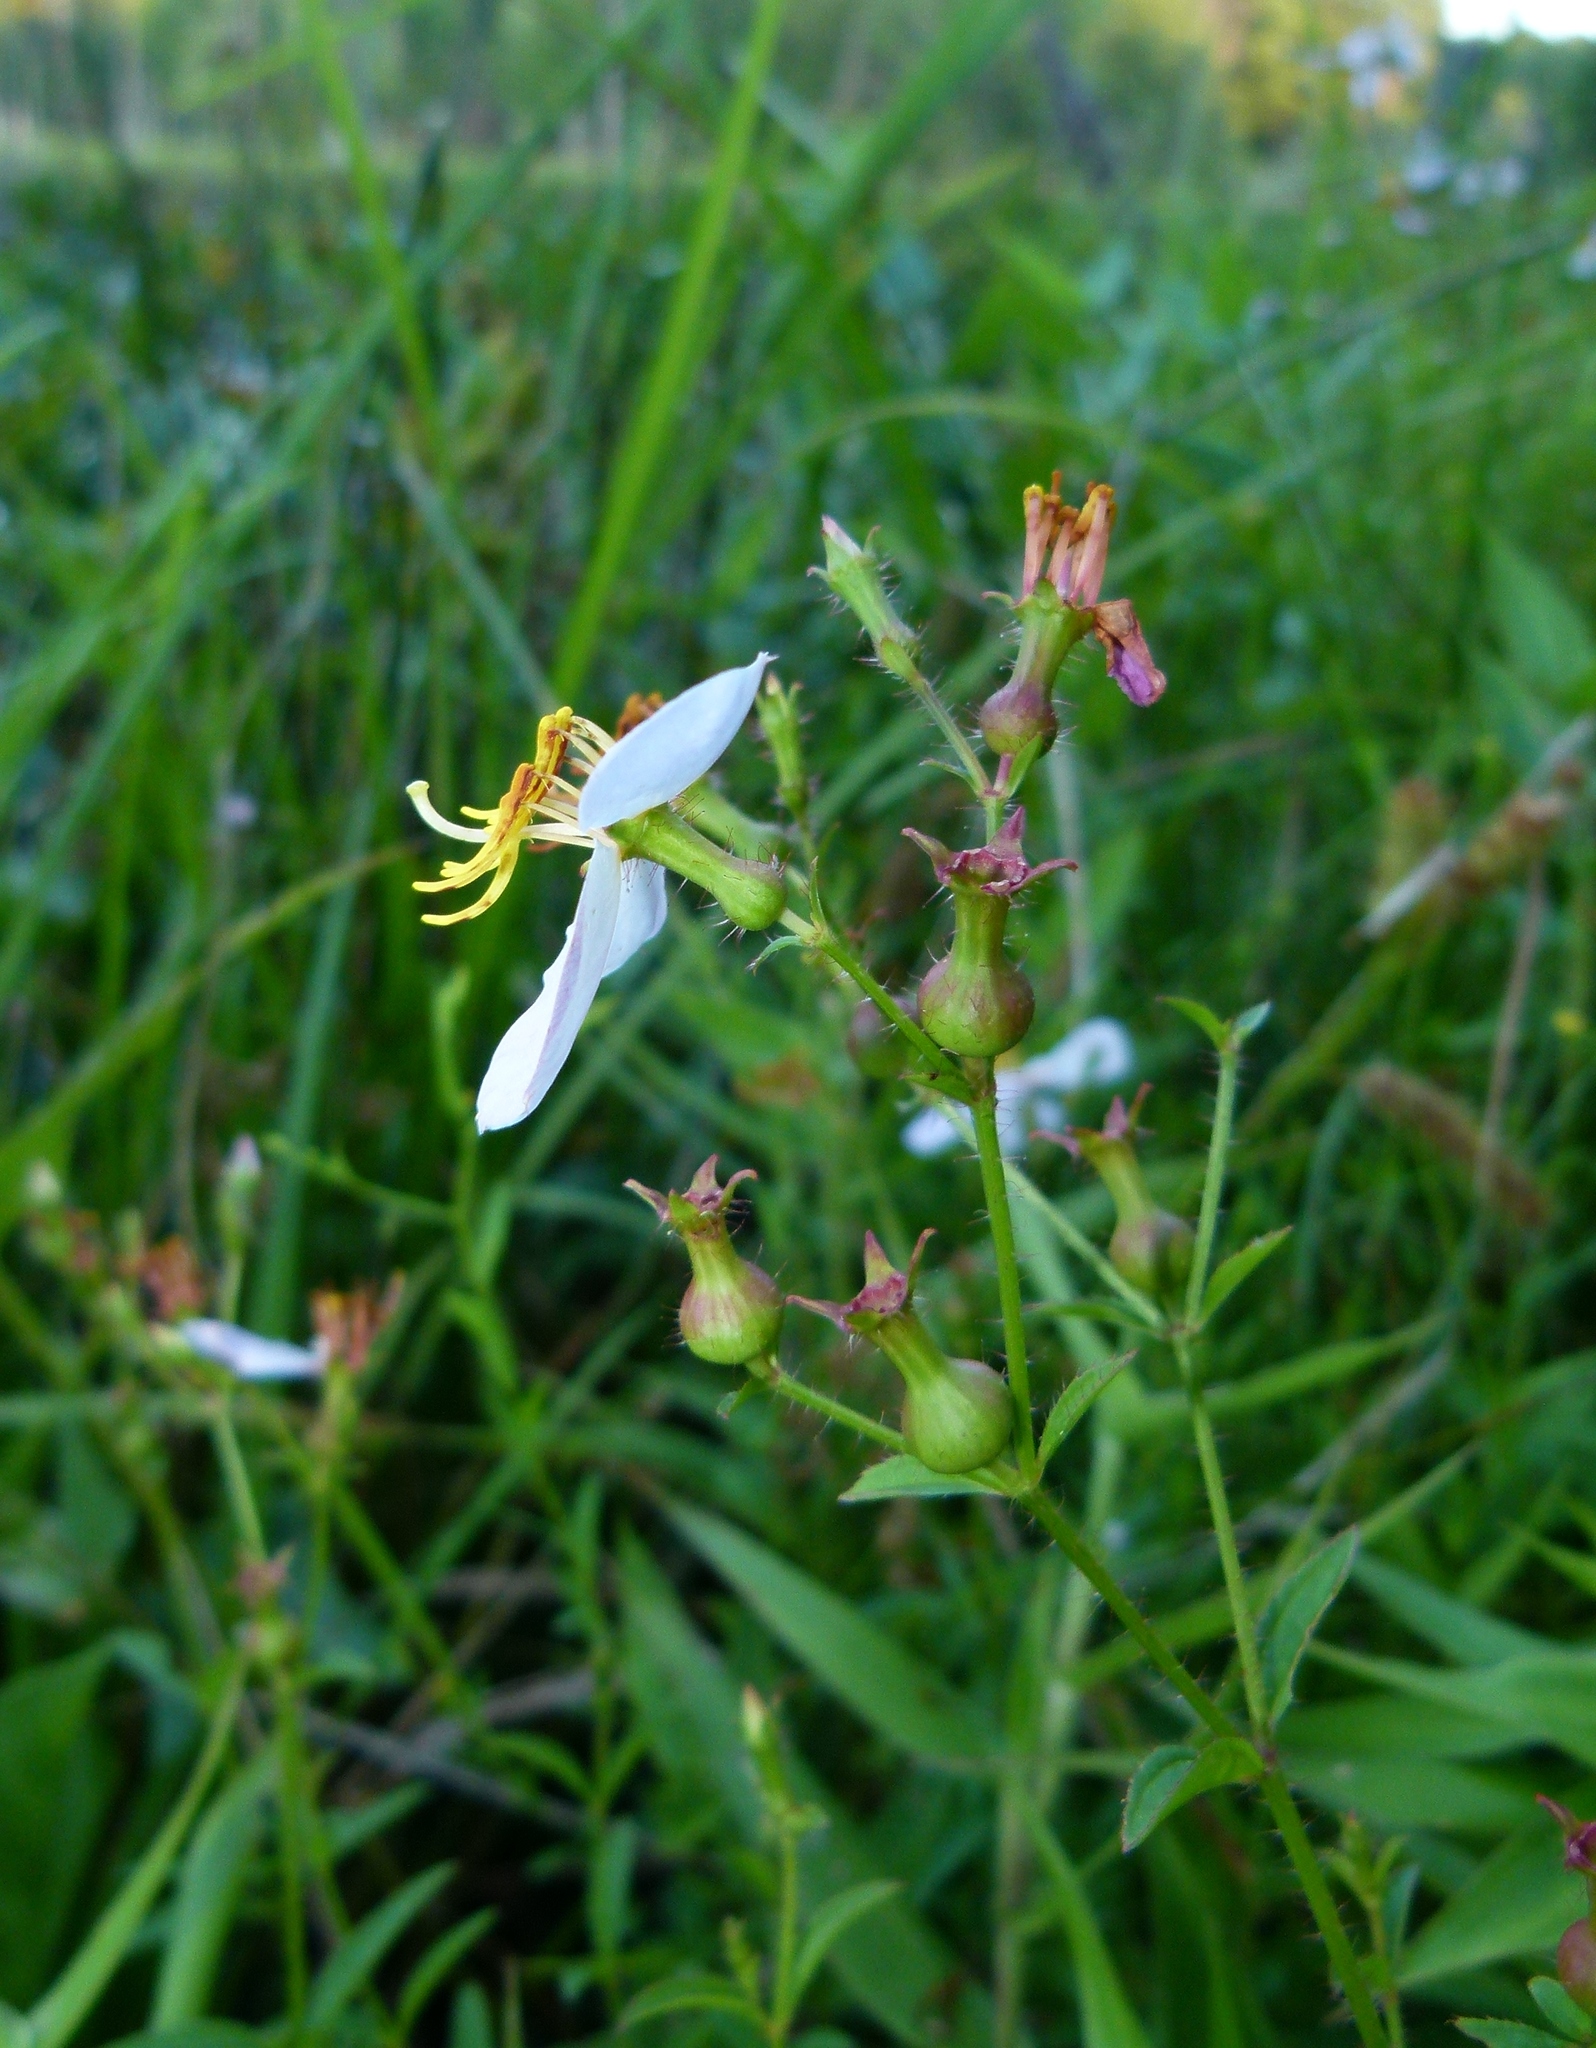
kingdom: Plantae
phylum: Tracheophyta
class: Magnoliopsida
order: Myrtales
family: Melastomataceae
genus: Rhexia
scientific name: Rhexia mariana
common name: Dull meadow-pitcher
